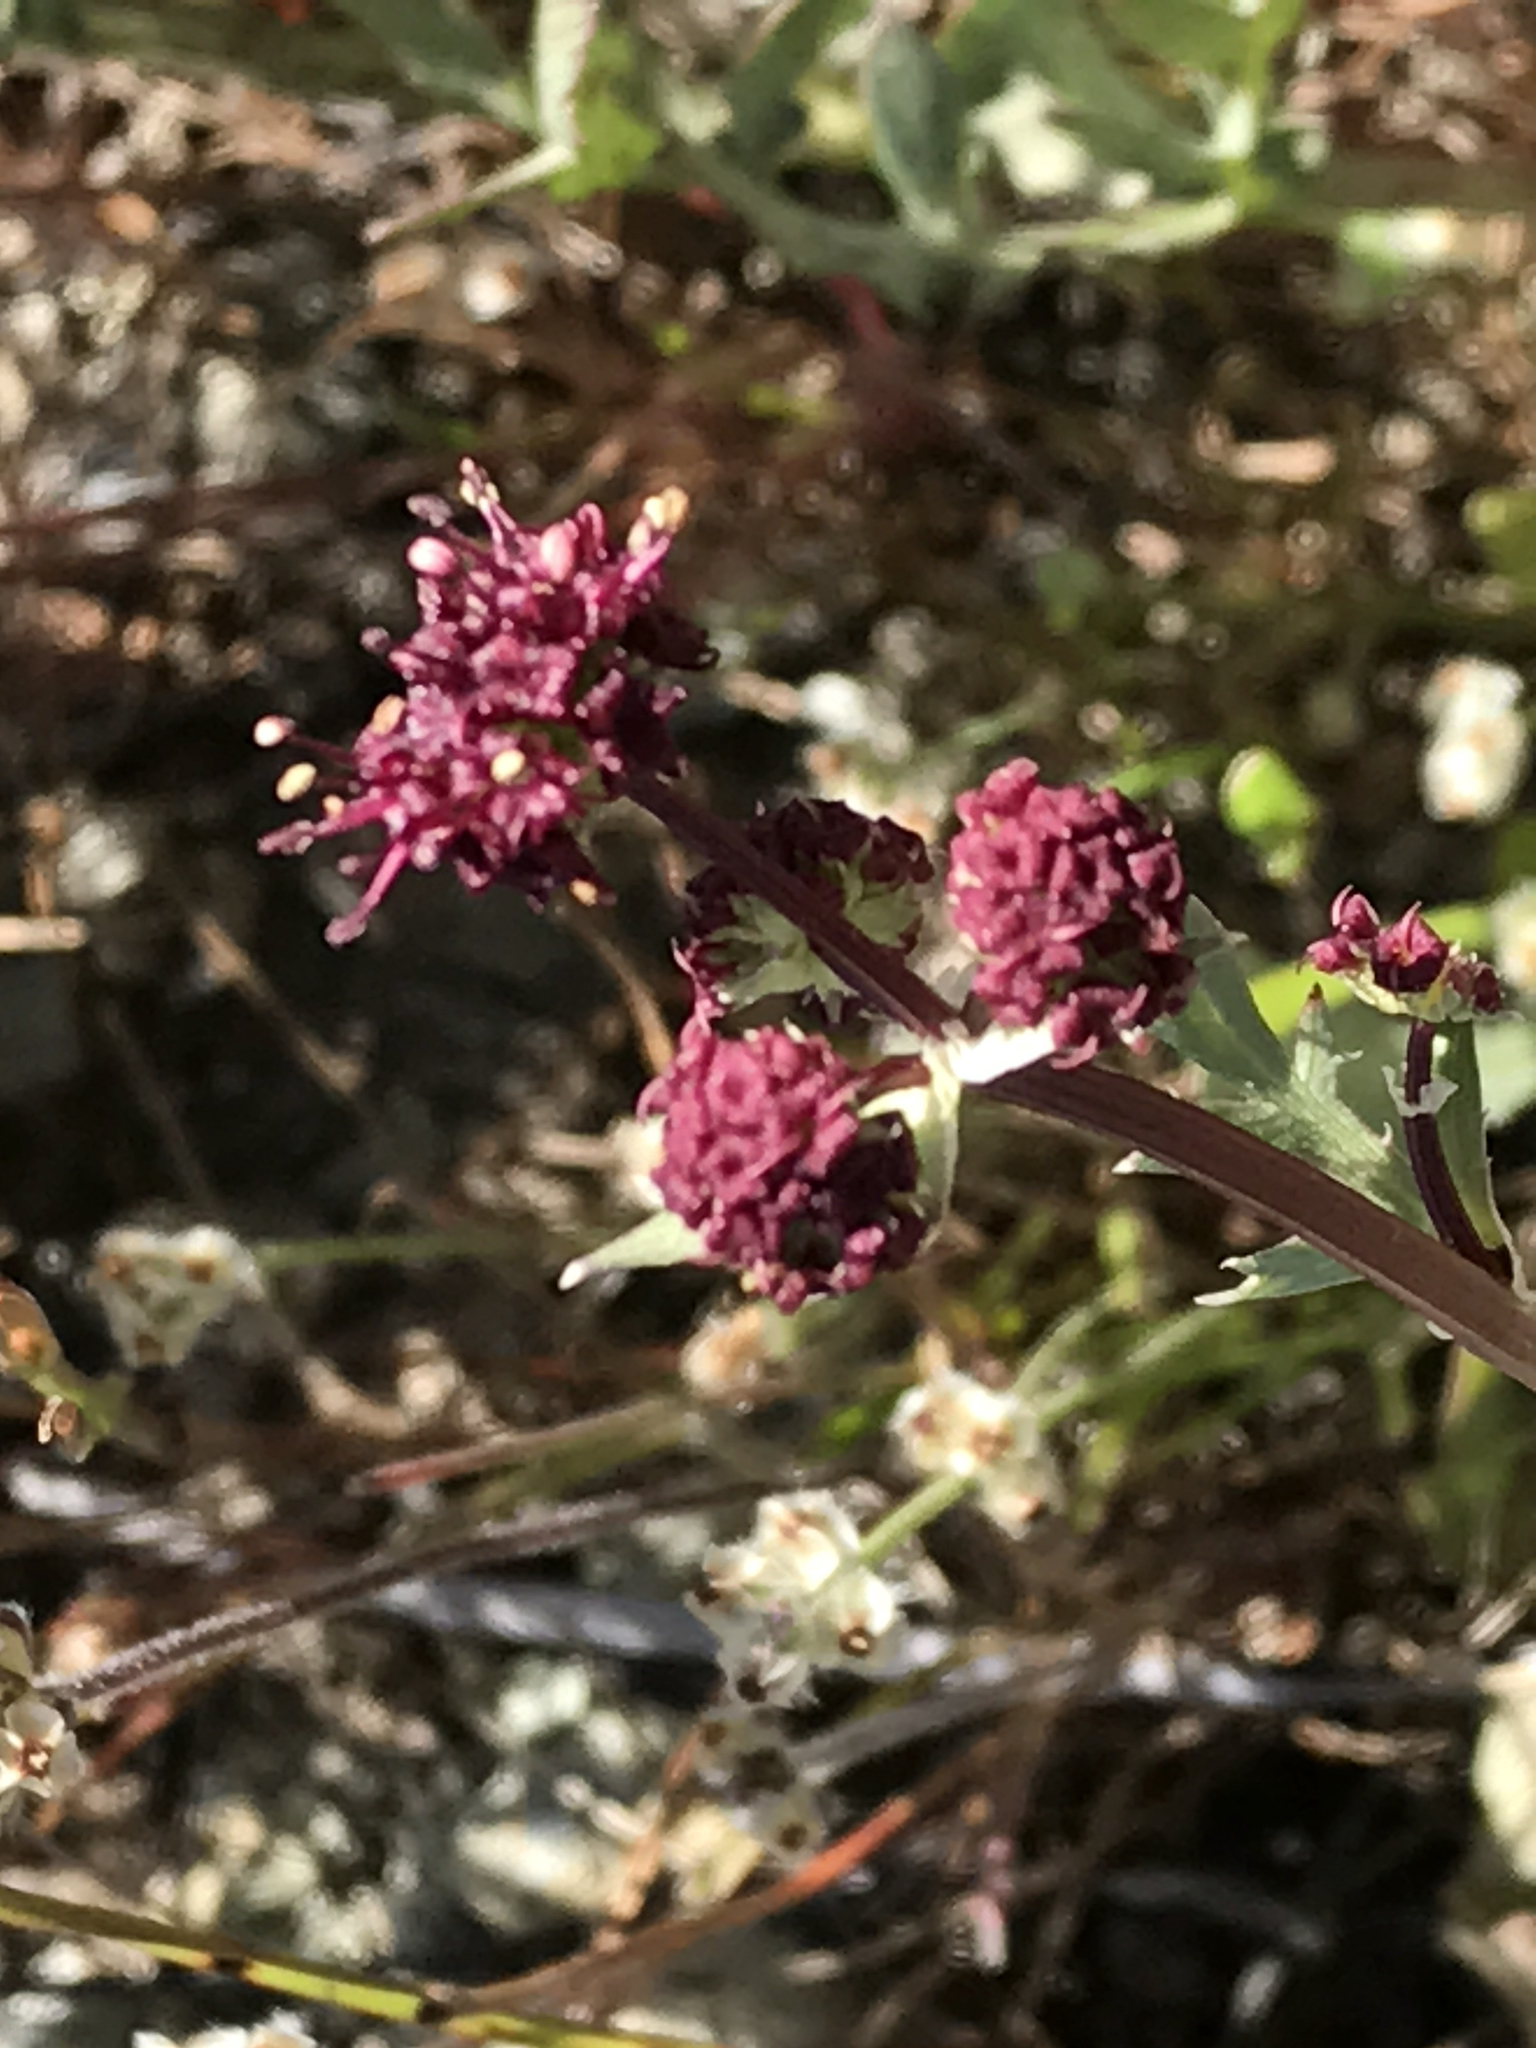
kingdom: Plantae
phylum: Tracheophyta
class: Magnoliopsida
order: Apiales
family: Apiaceae
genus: Sanicula
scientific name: Sanicula bipinnatifida
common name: Shoe-buttons
